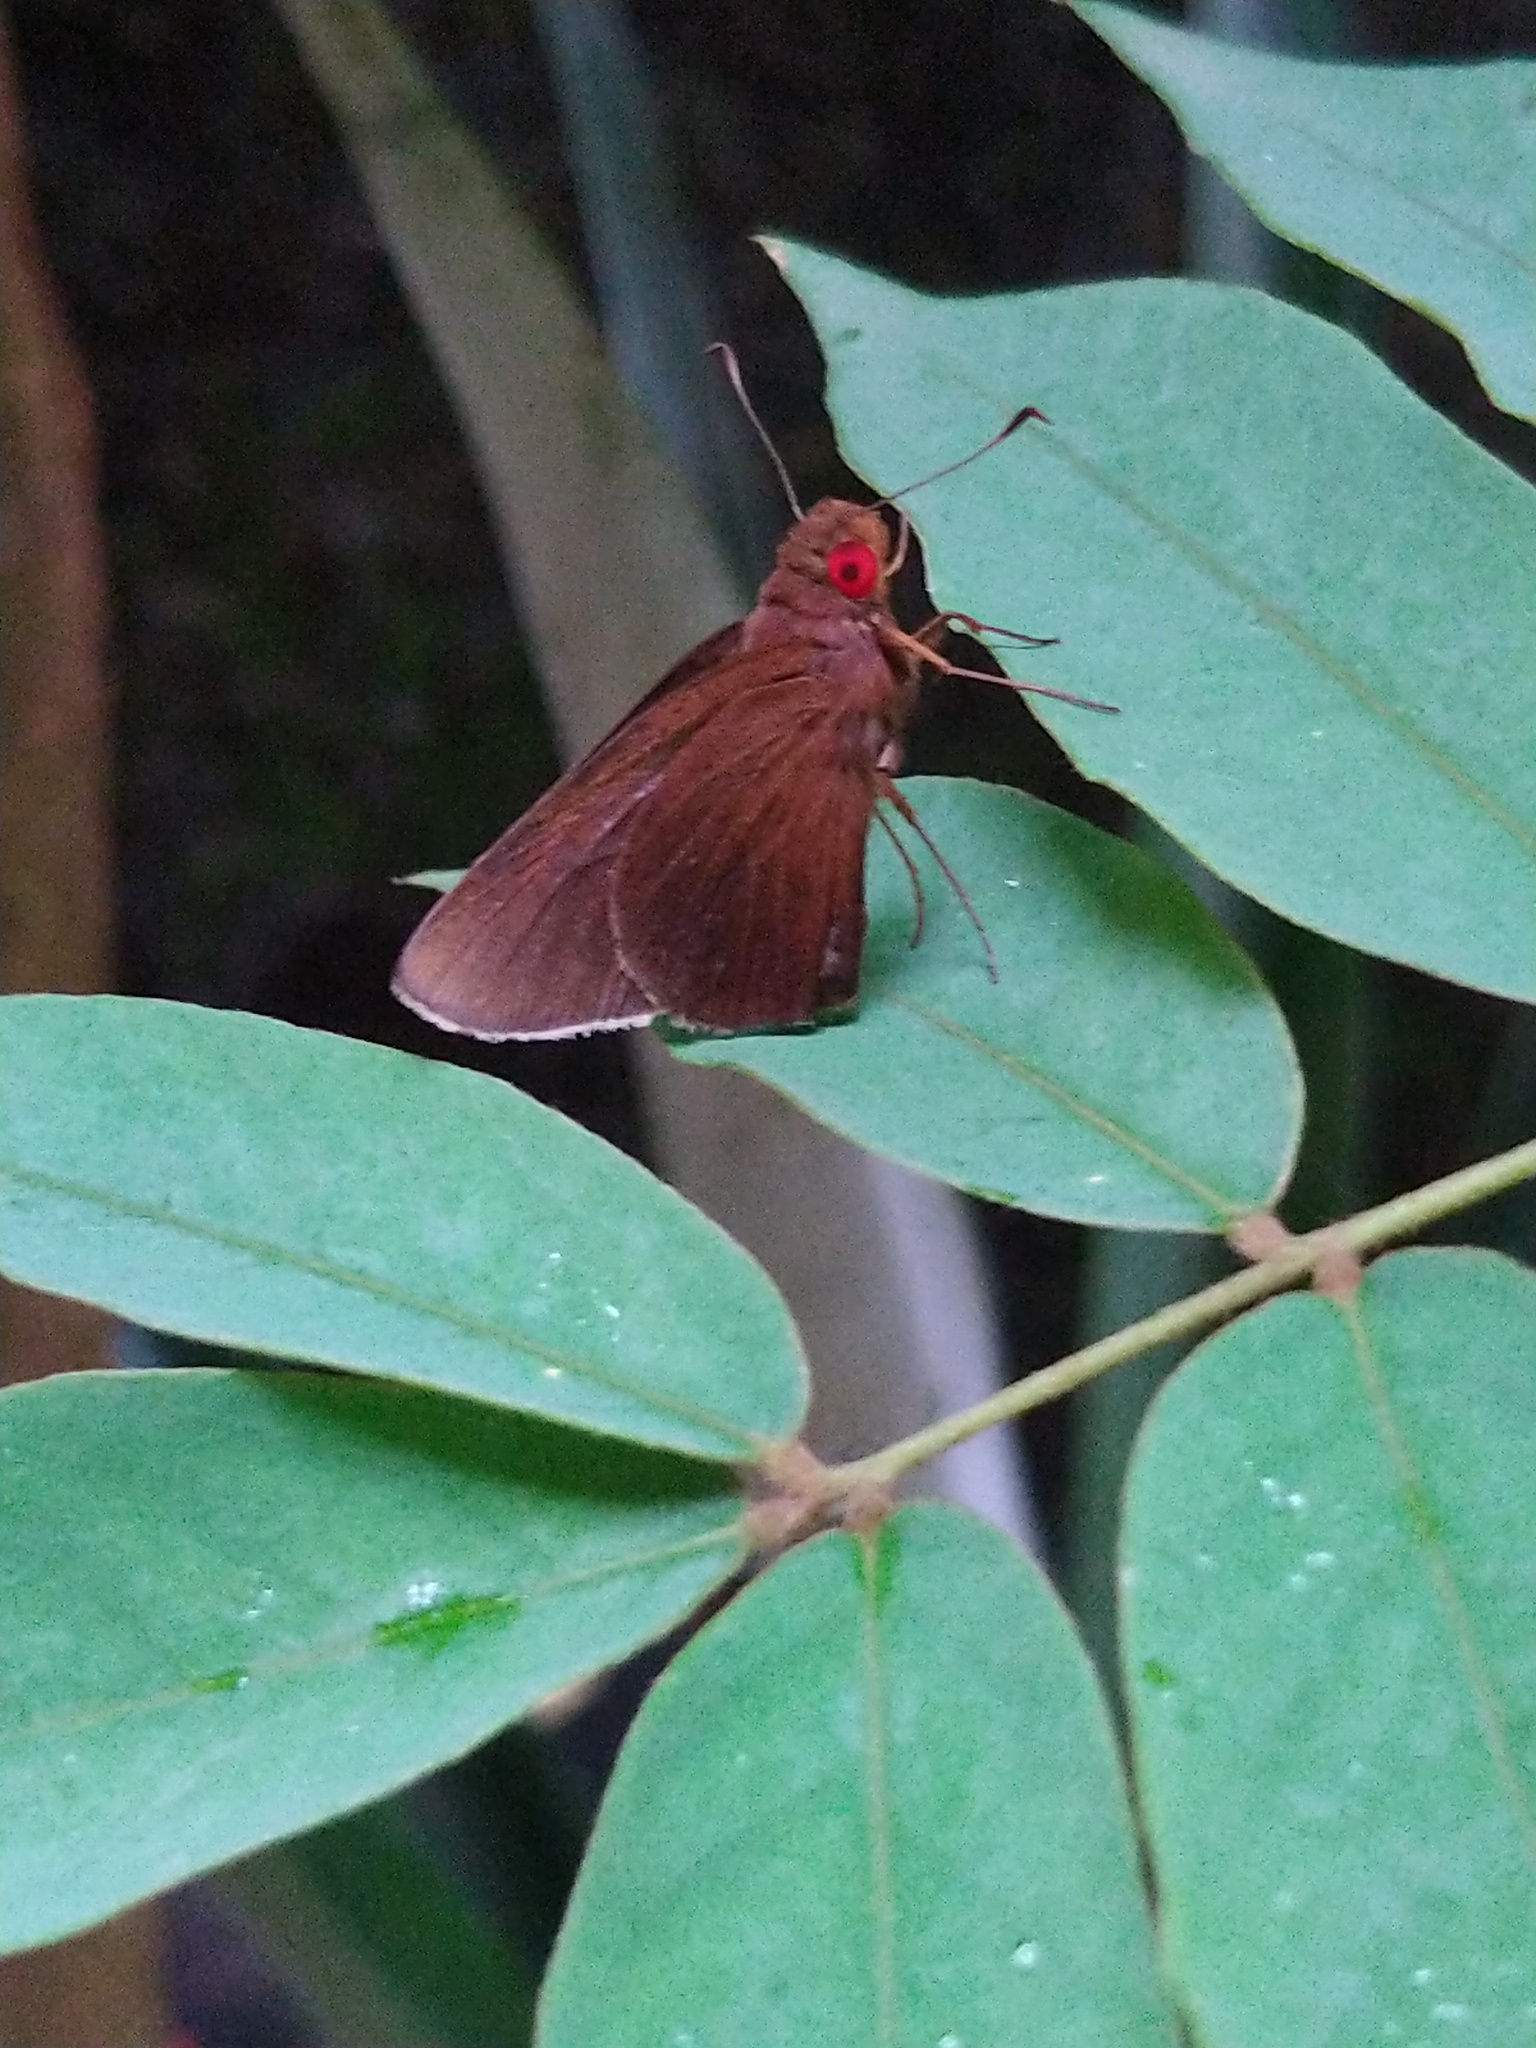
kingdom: Animalia
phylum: Arthropoda
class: Insecta
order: Lepidoptera
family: Hesperiidae
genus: Matapa
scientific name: Matapa aria
